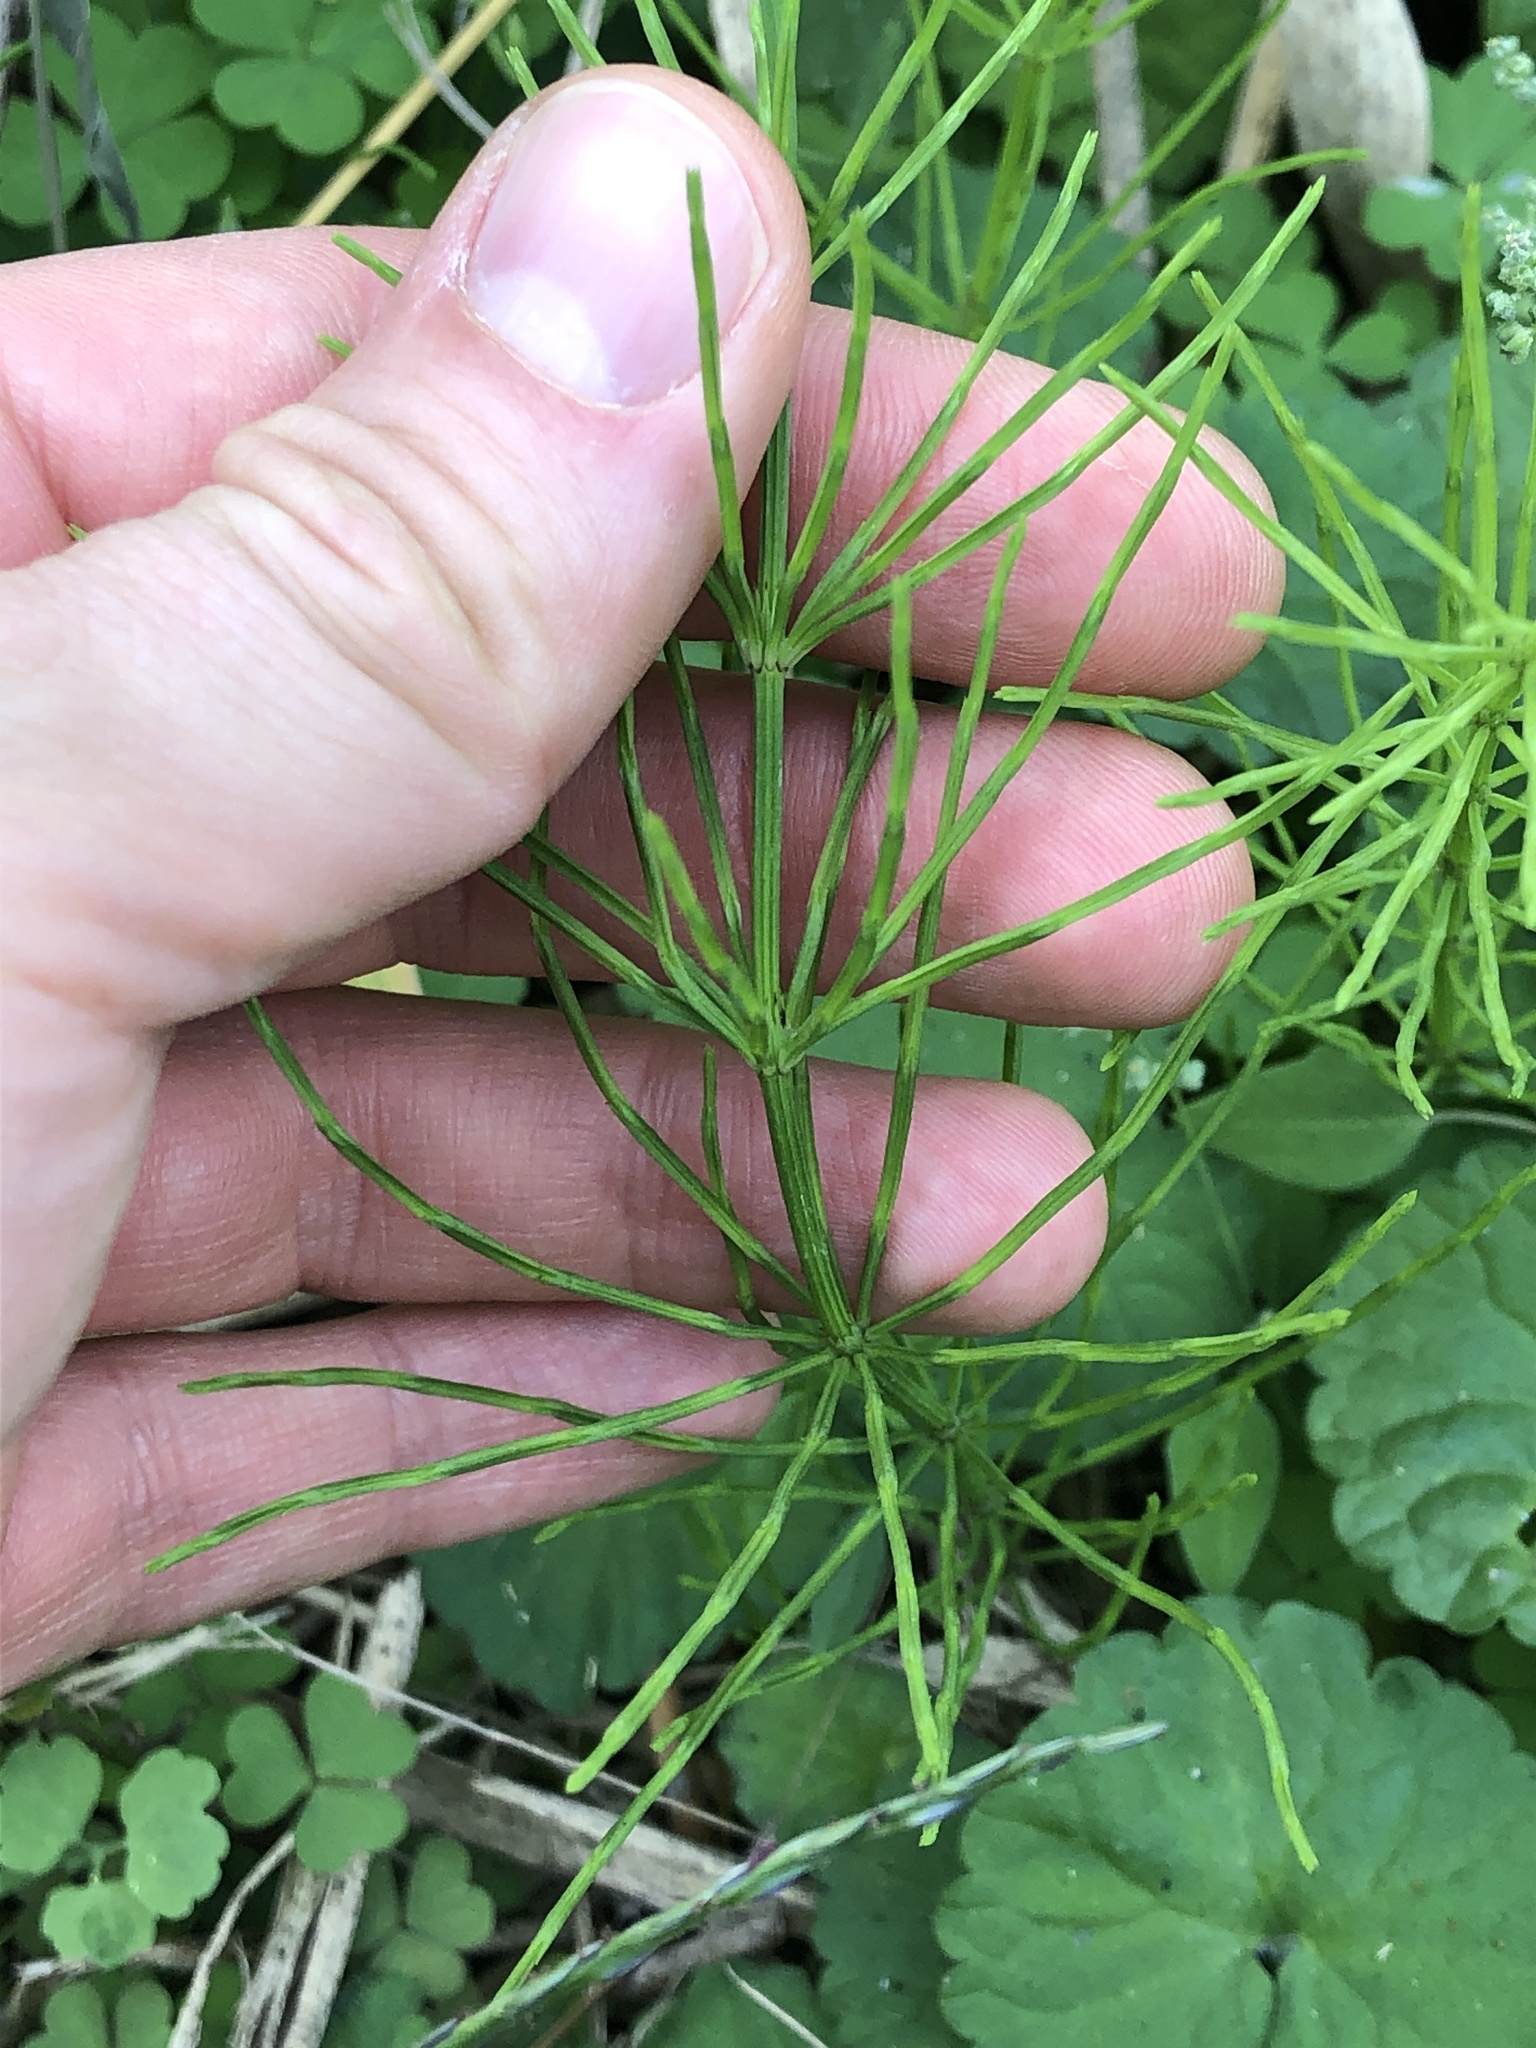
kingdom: Plantae
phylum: Tracheophyta
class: Polypodiopsida
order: Equisetales
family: Equisetaceae
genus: Equisetum
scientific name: Equisetum arvense
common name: Field horsetail
